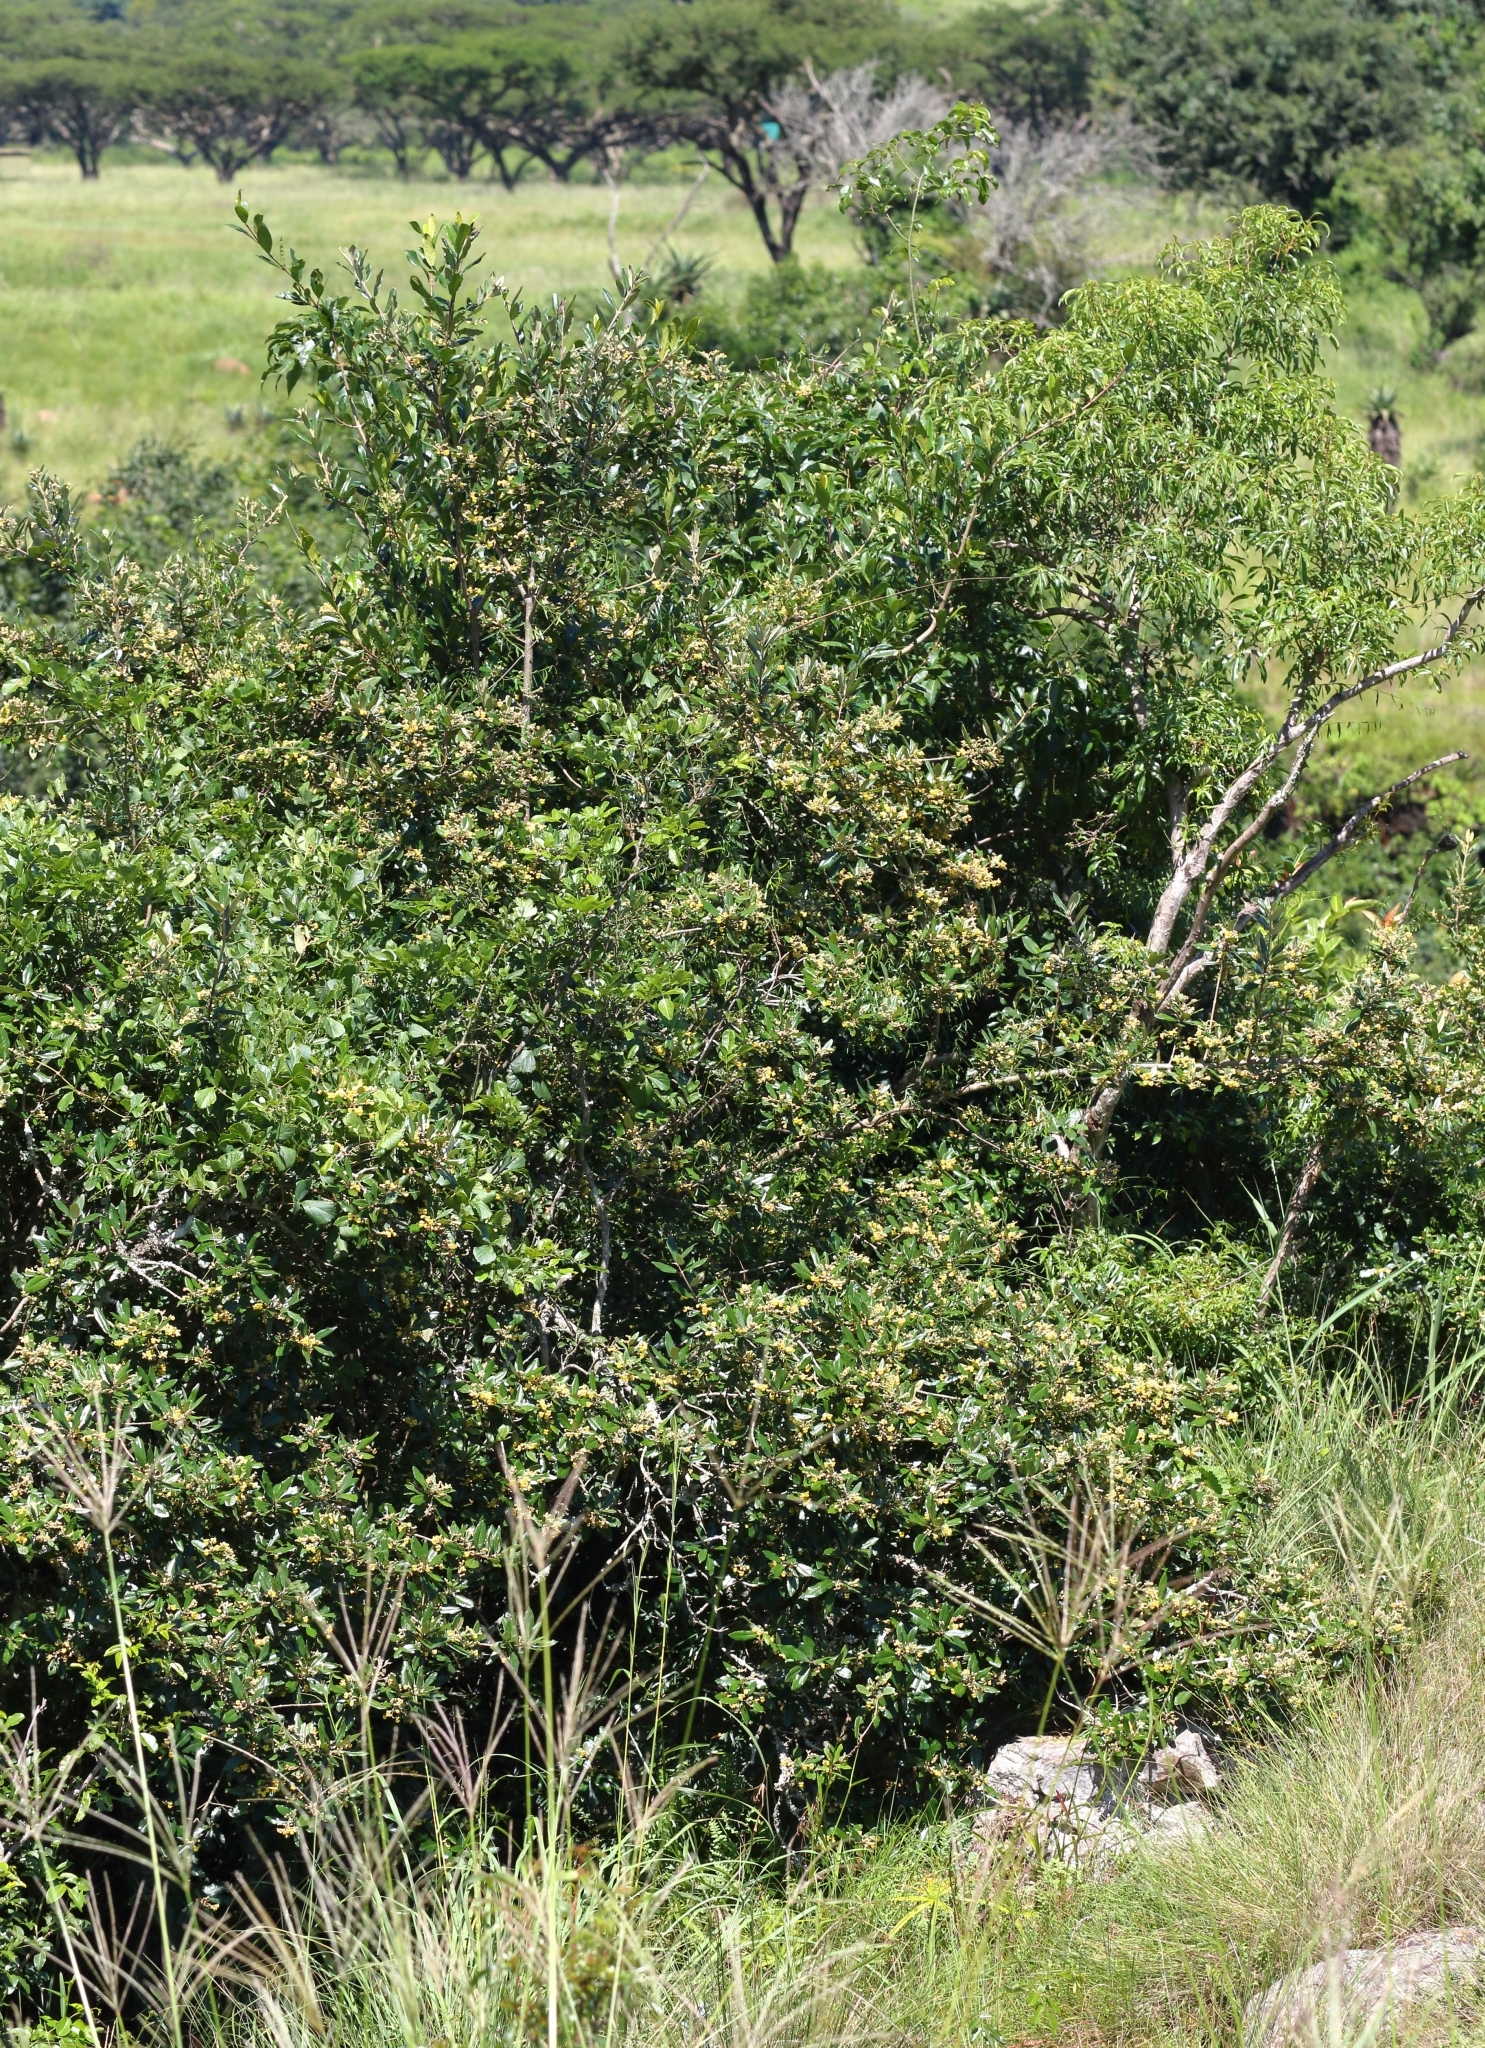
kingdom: Plantae
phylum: Tracheophyta
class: Magnoliopsida
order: Lamiales
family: Stilbaceae
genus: Anastrabe
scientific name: Anastrabe integerrima
